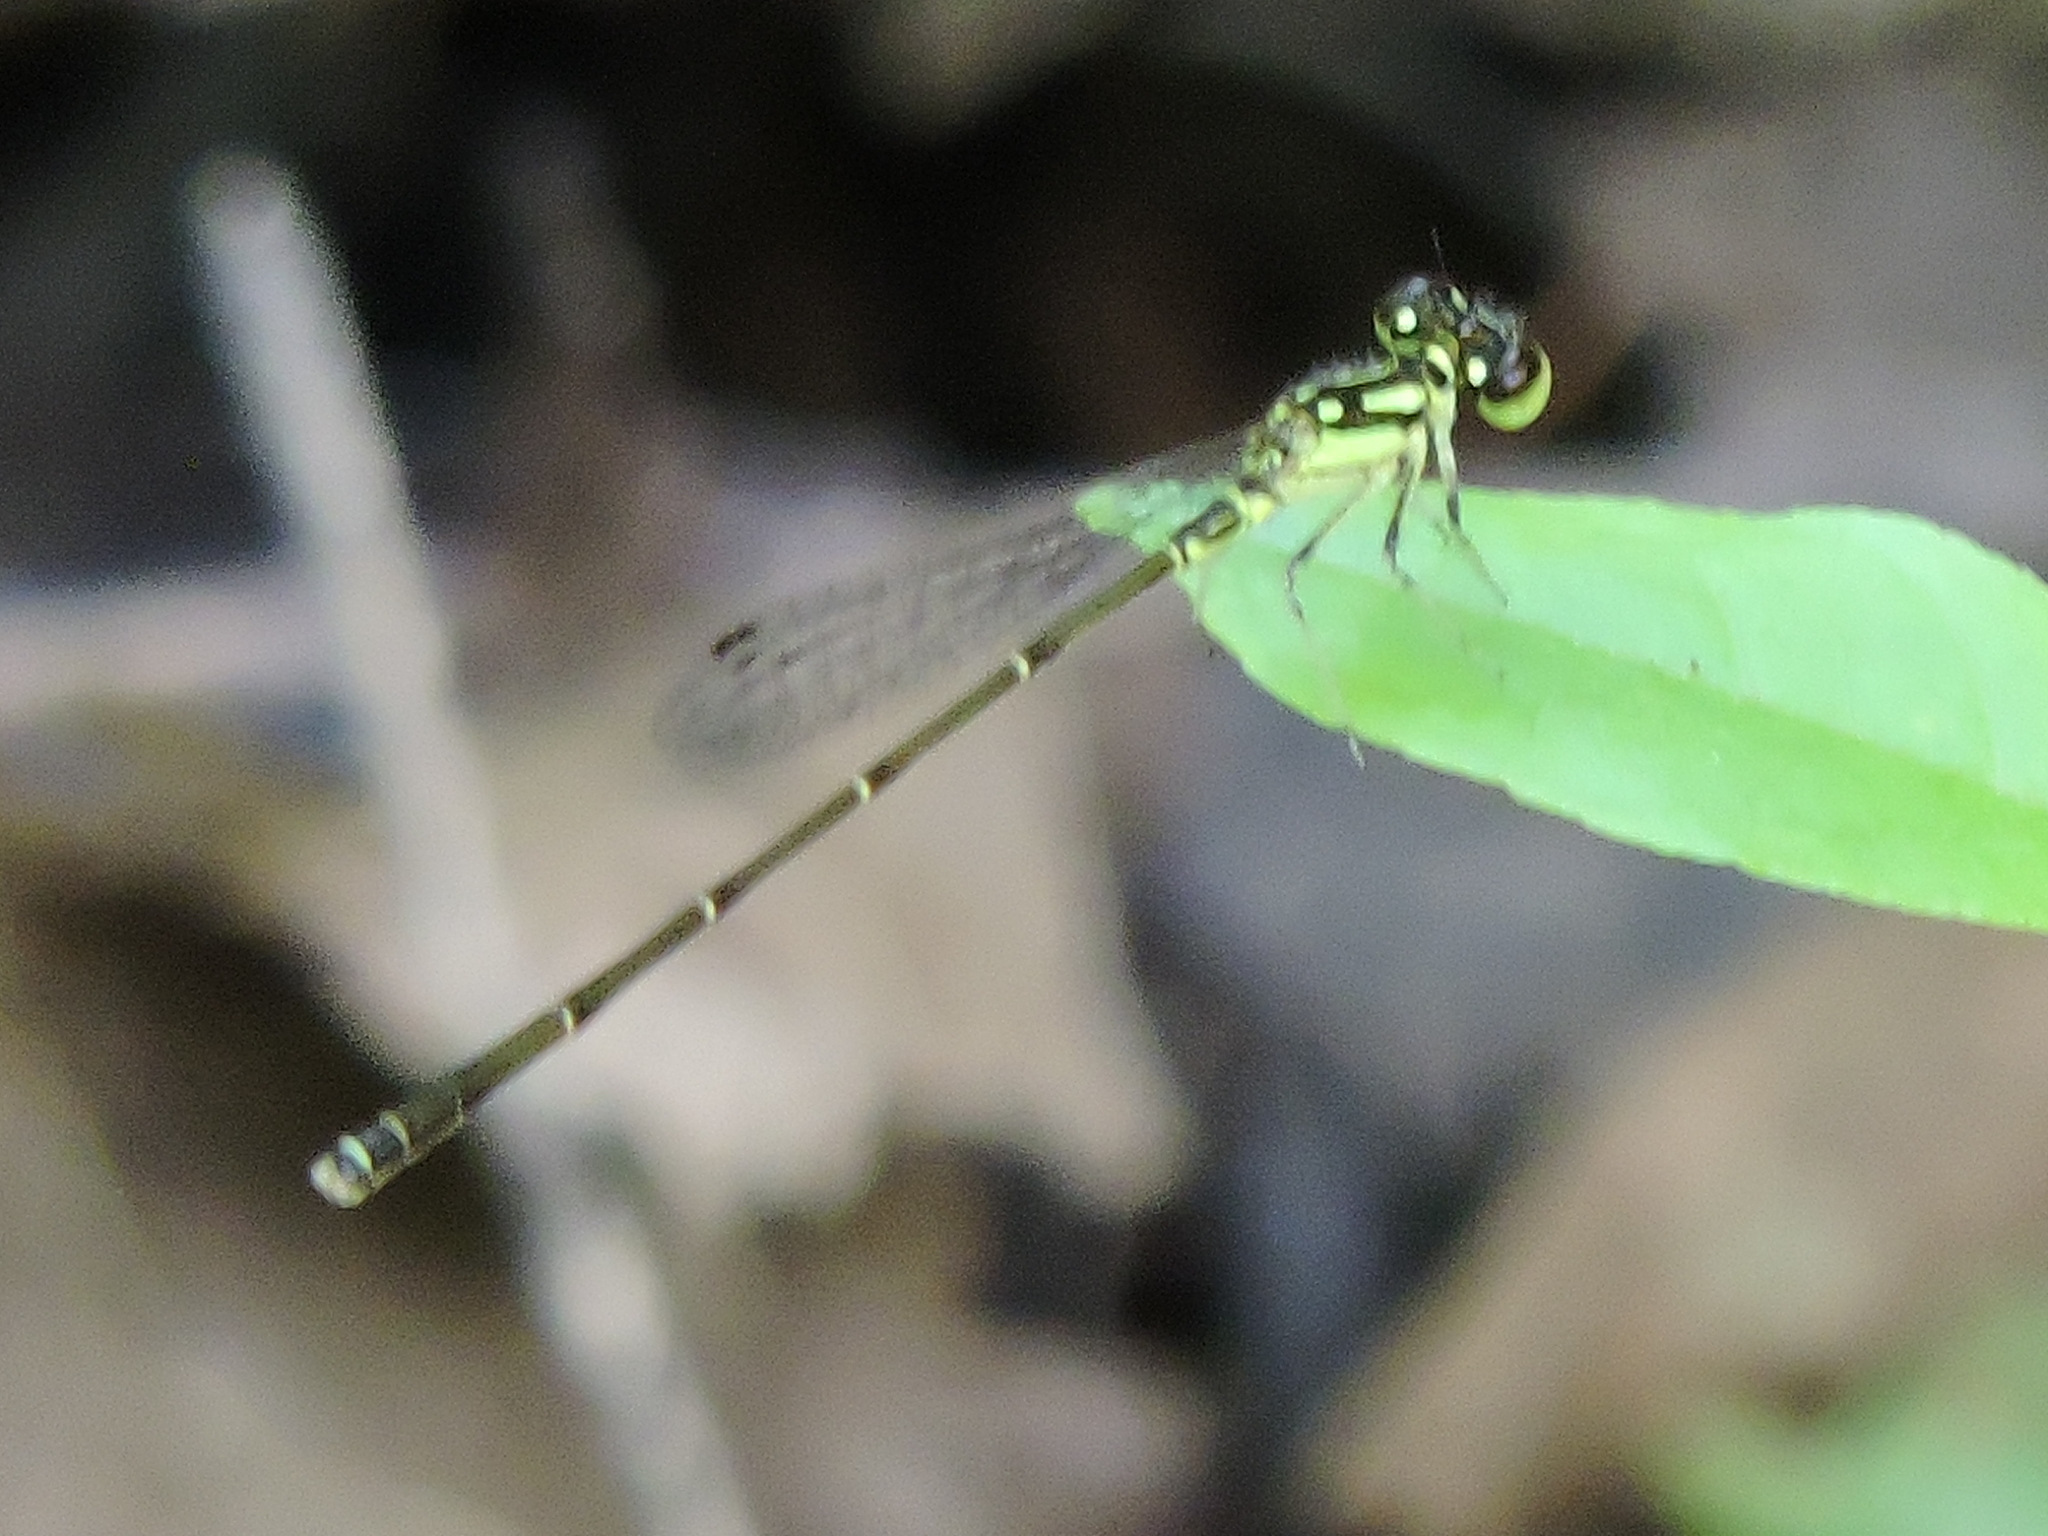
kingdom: Animalia
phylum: Arthropoda
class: Insecta
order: Odonata
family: Coenagrionidae
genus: Ischnura
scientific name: Ischnura posita
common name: Fragile forktail
